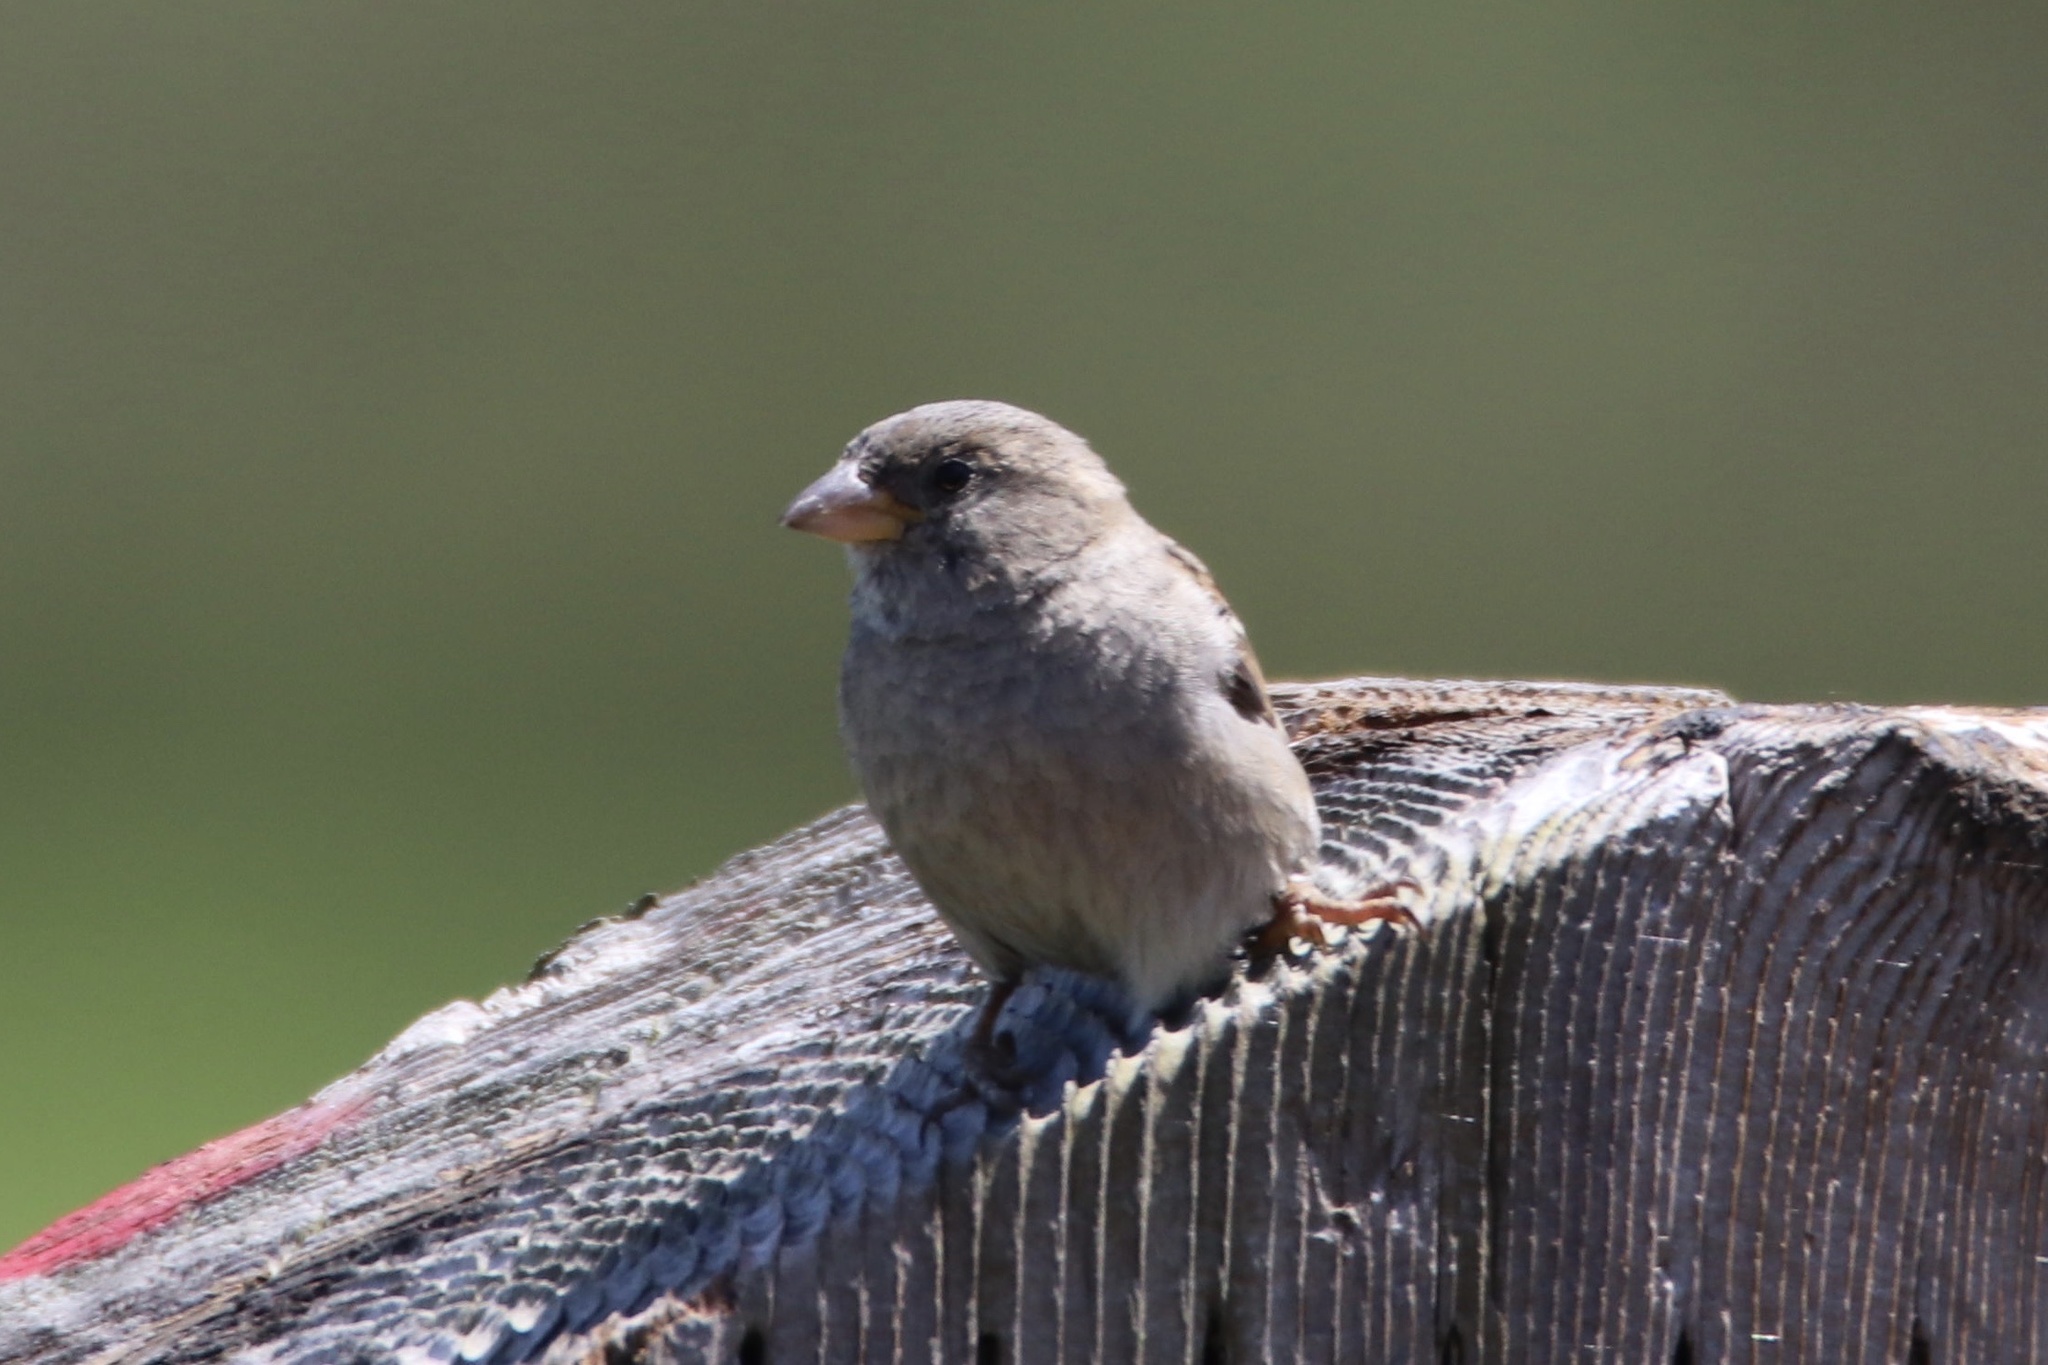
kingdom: Animalia
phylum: Chordata
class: Aves
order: Passeriformes
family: Passeridae
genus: Passer
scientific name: Passer domesticus
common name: House sparrow
